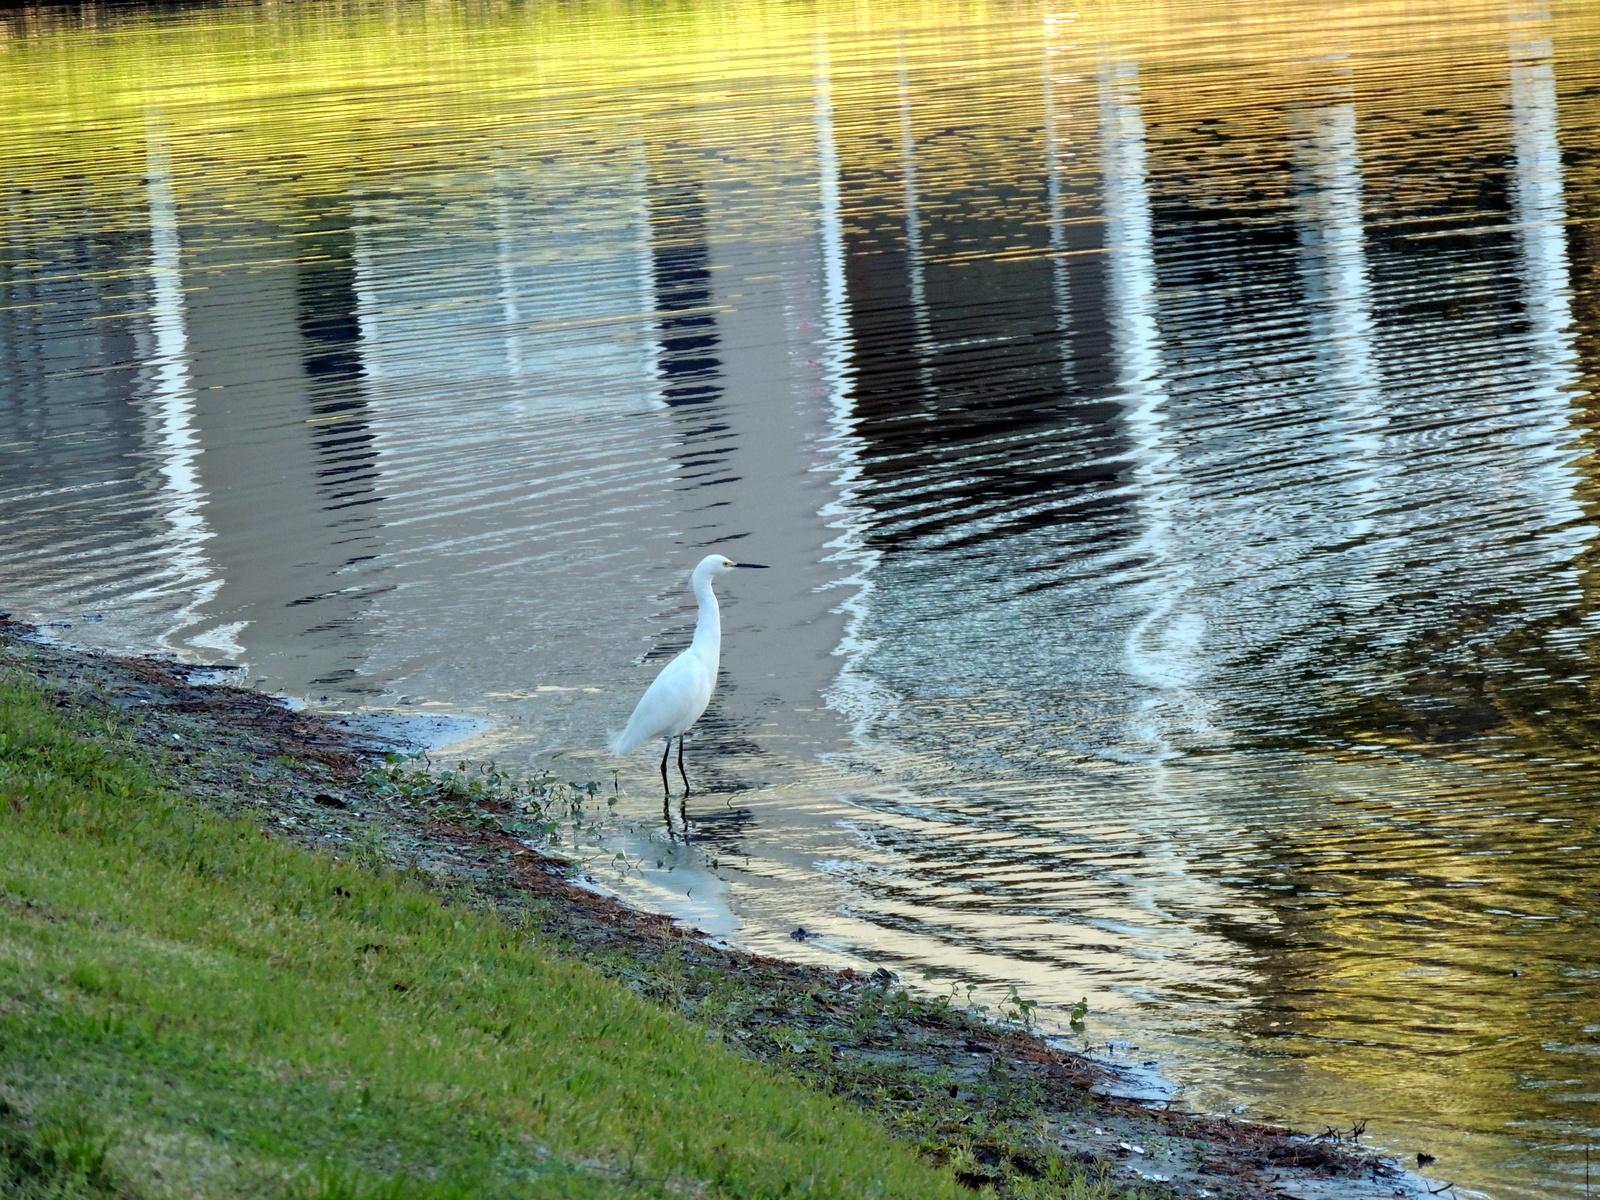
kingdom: Animalia
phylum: Chordata
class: Aves
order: Pelecaniformes
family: Ardeidae
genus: Egretta
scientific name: Egretta thula
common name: Snowy egret
